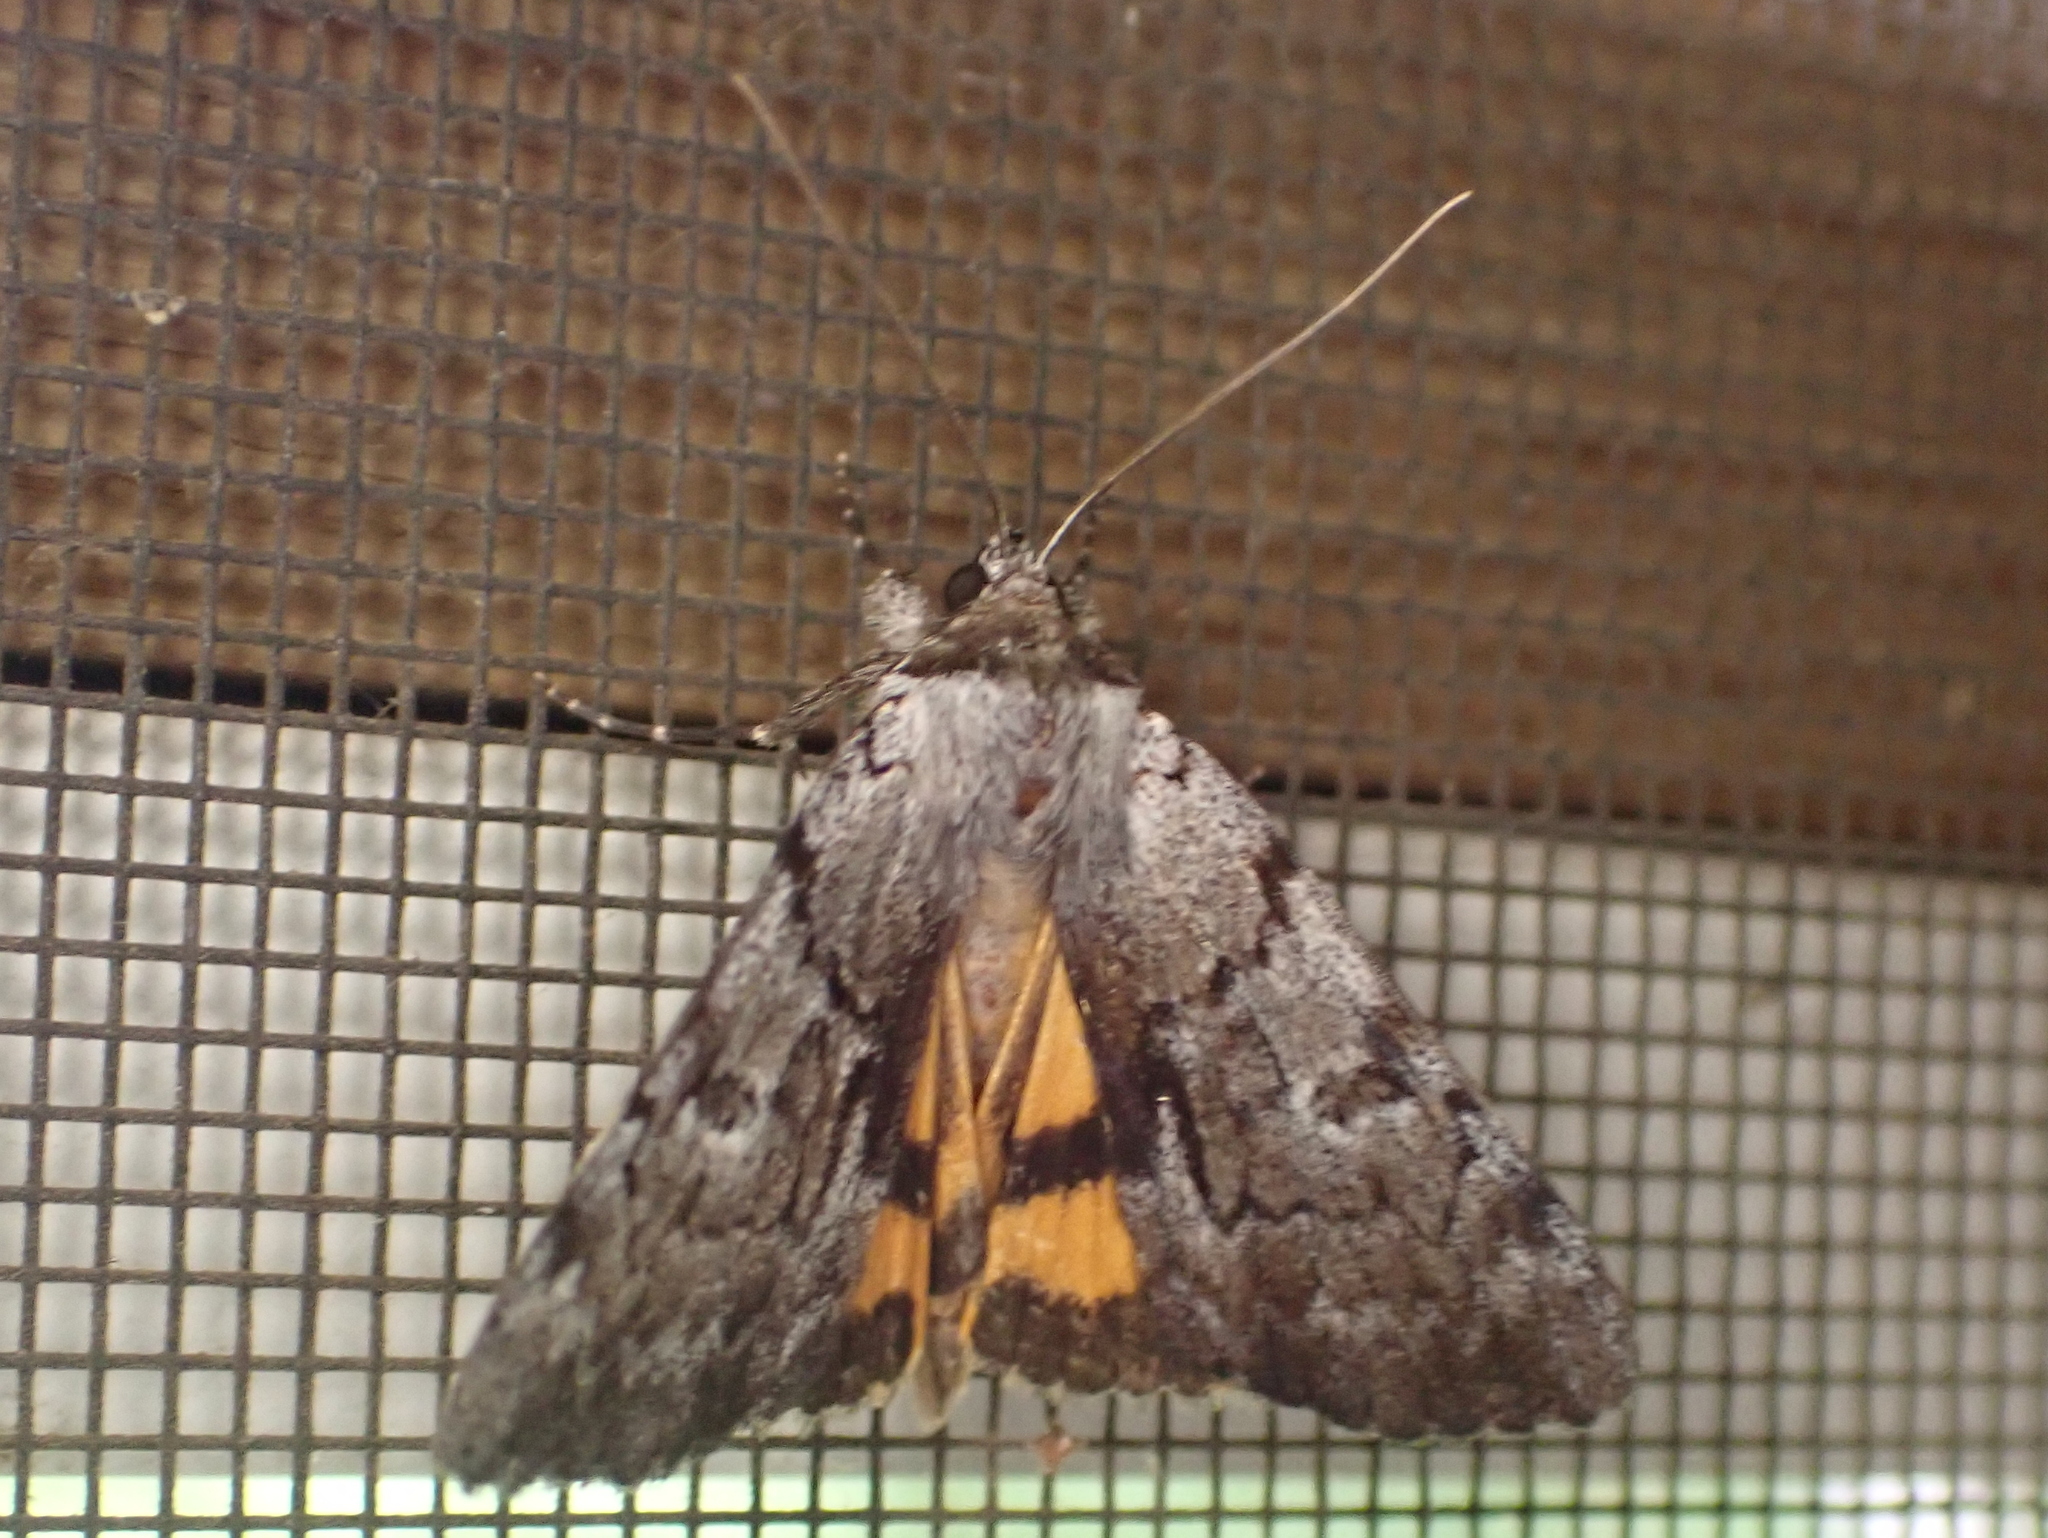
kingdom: Animalia
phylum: Arthropoda
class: Insecta
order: Lepidoptera
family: Erebidae
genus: Catocala
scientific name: Catocala sordida
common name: Sordid underwing
